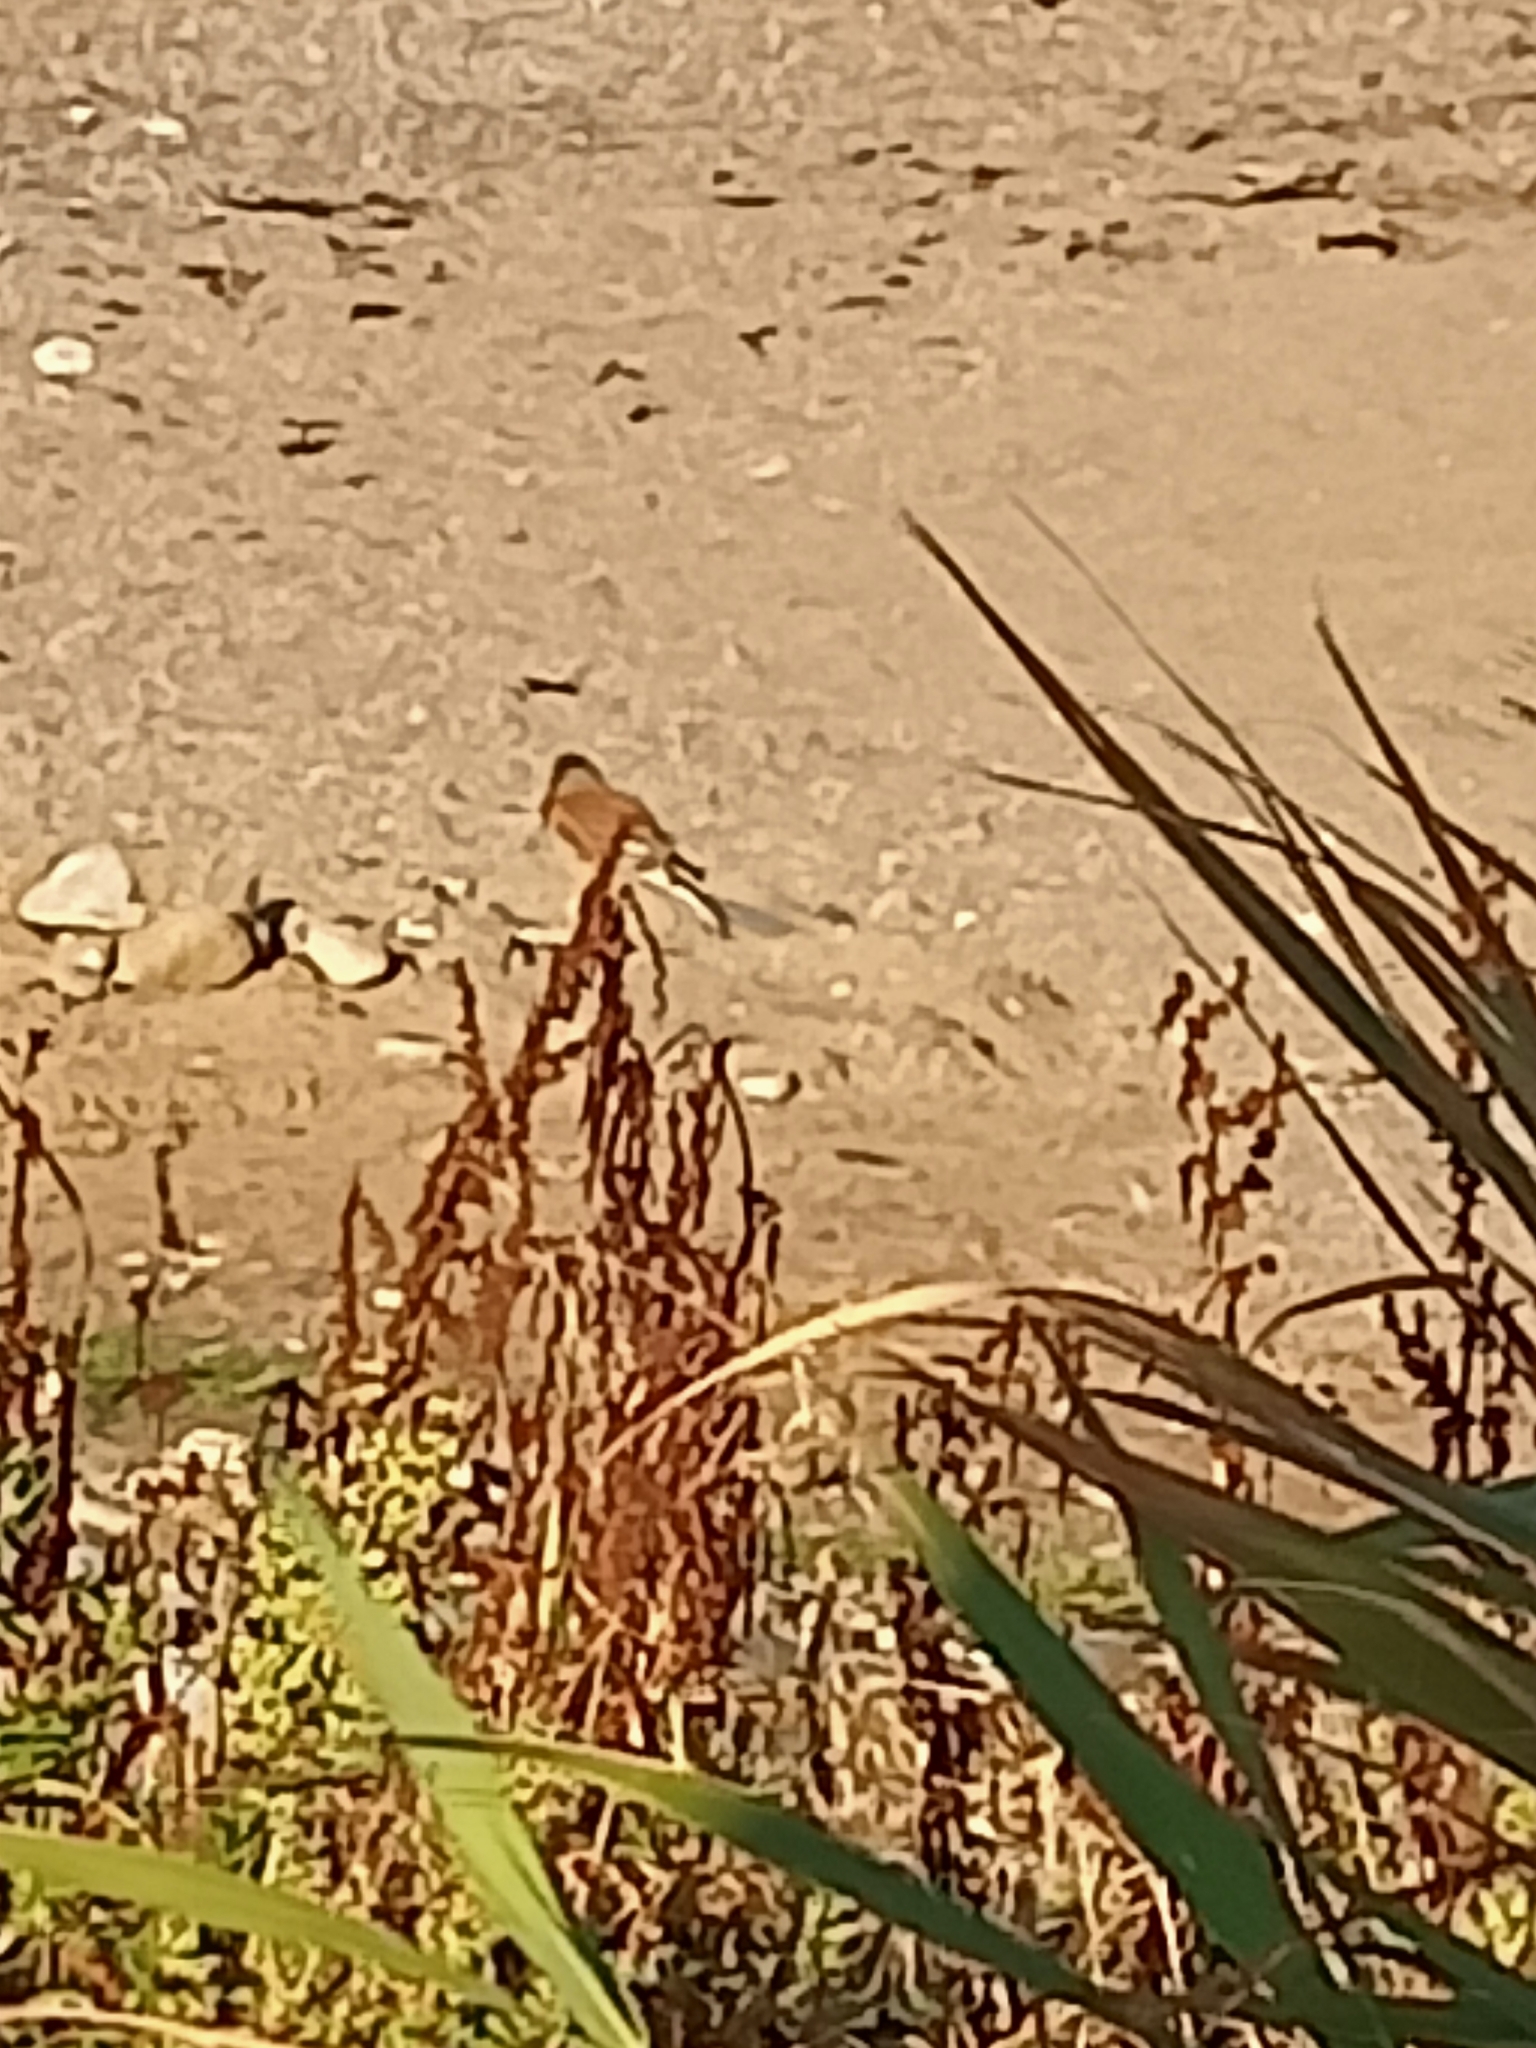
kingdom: Animalia
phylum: Chordata
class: Aves
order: Passeriformes
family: Fringillidae
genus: Linaria
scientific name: Linaria cannabina
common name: Common linnet
